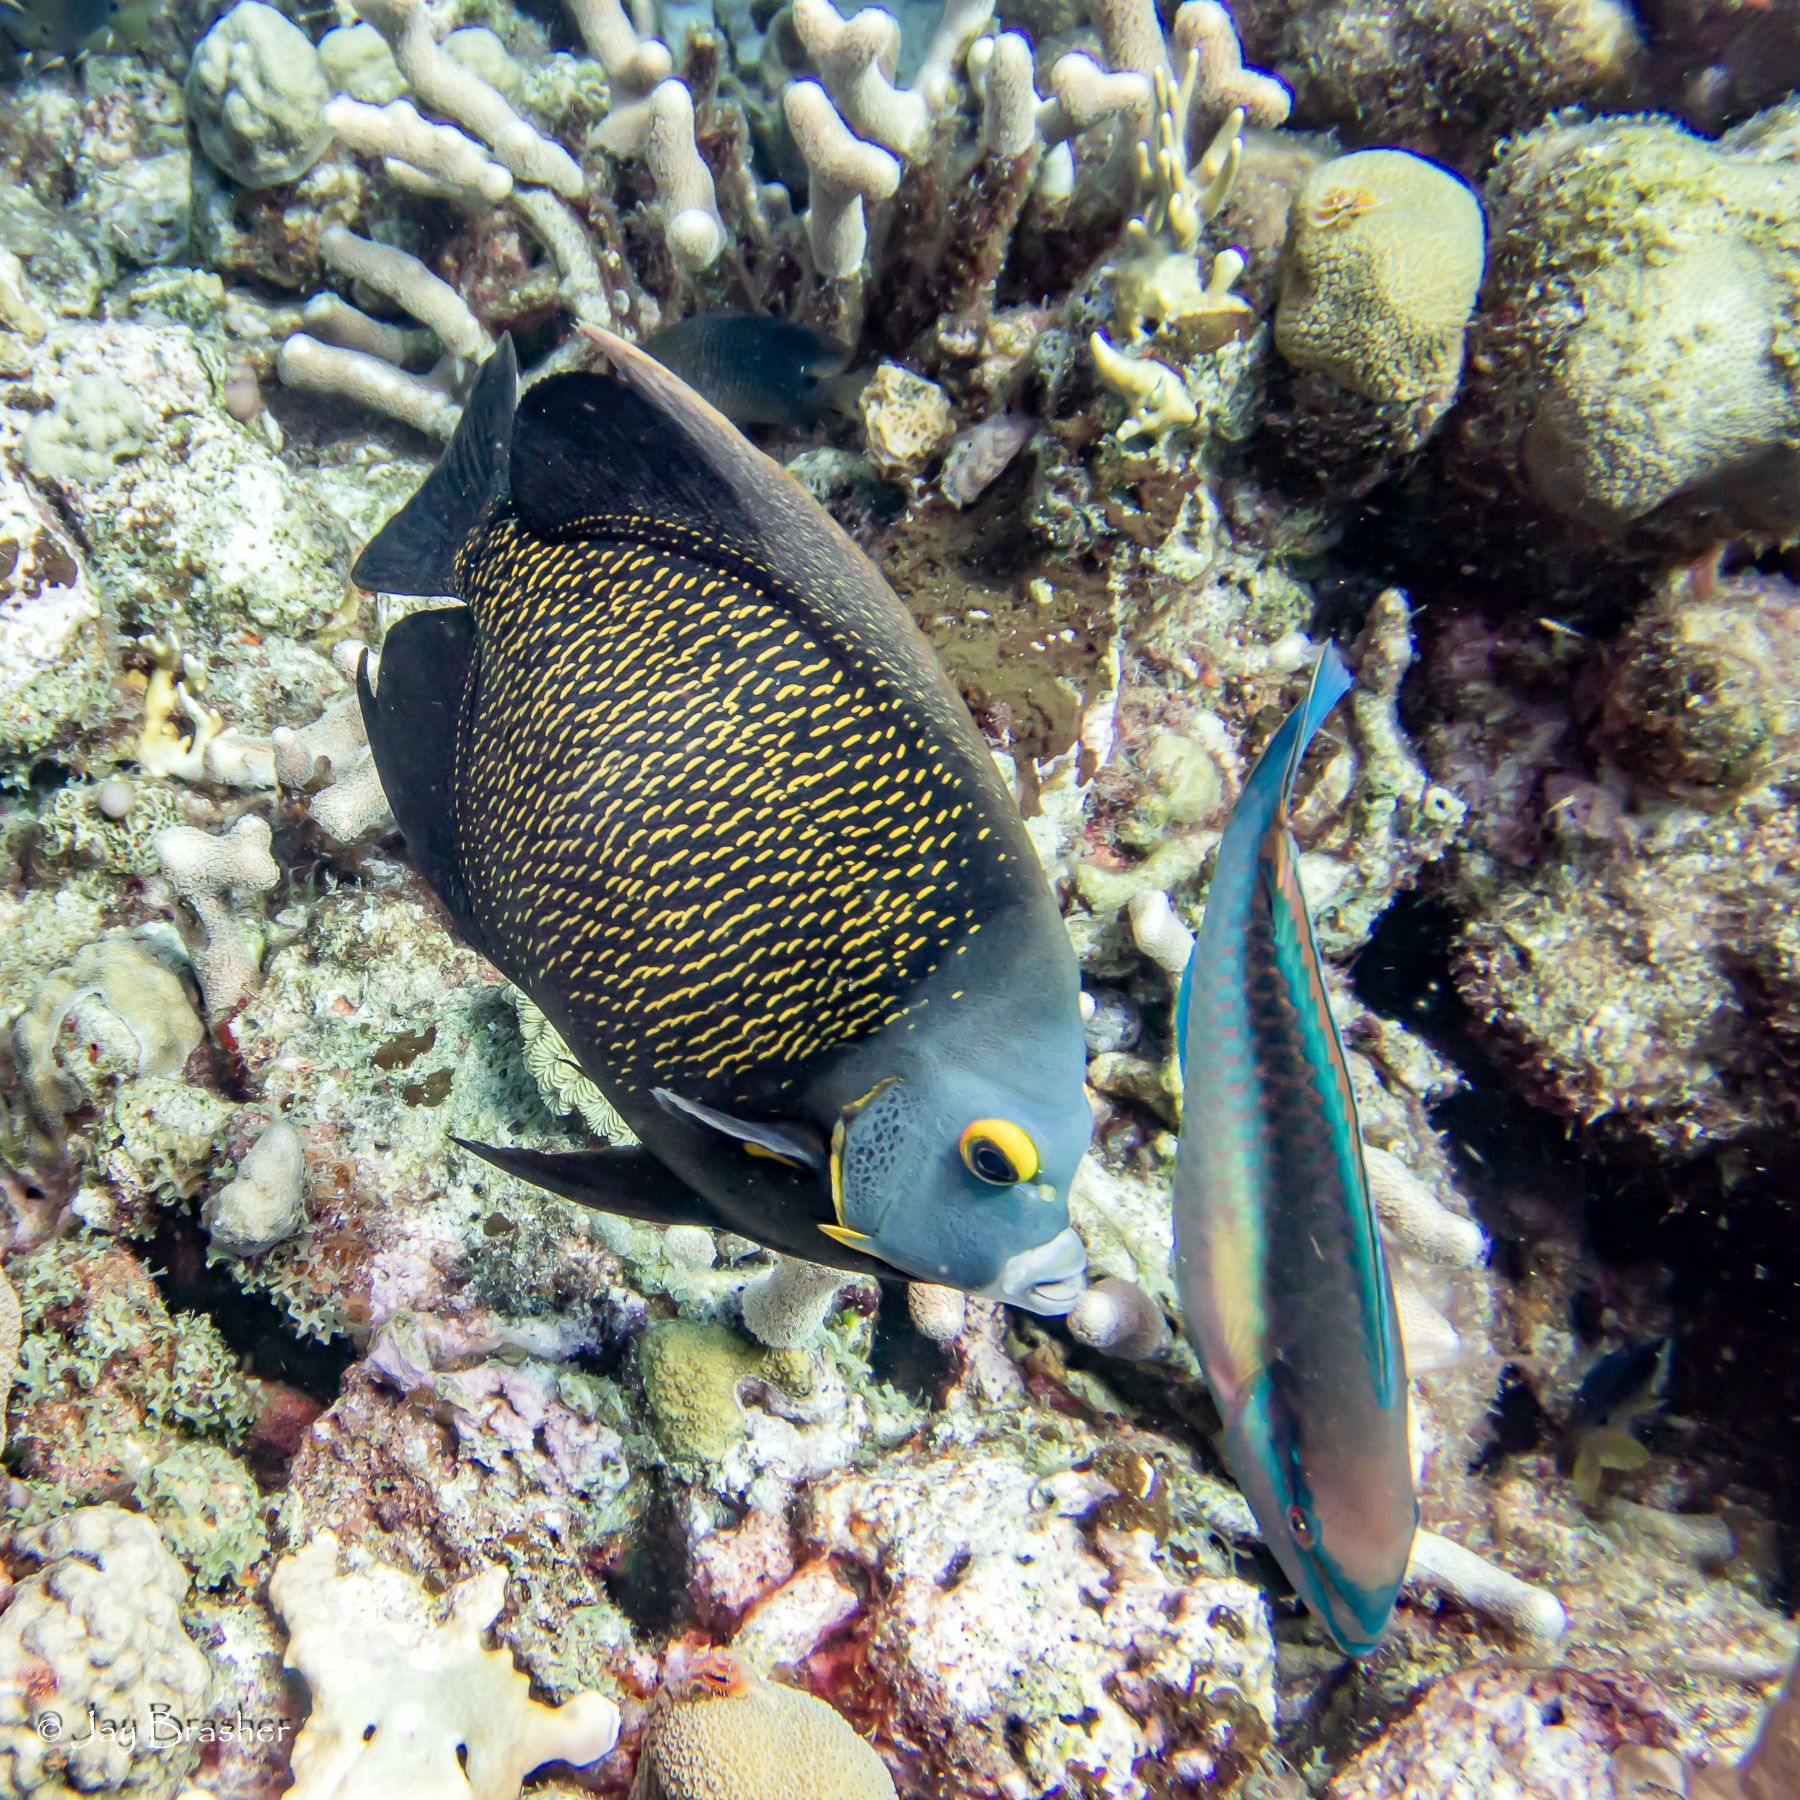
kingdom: Animalia
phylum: Chordata
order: Perciformes
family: Scaridae
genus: Scarus
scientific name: Scarus taeniopterus
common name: Princess parrotfish
